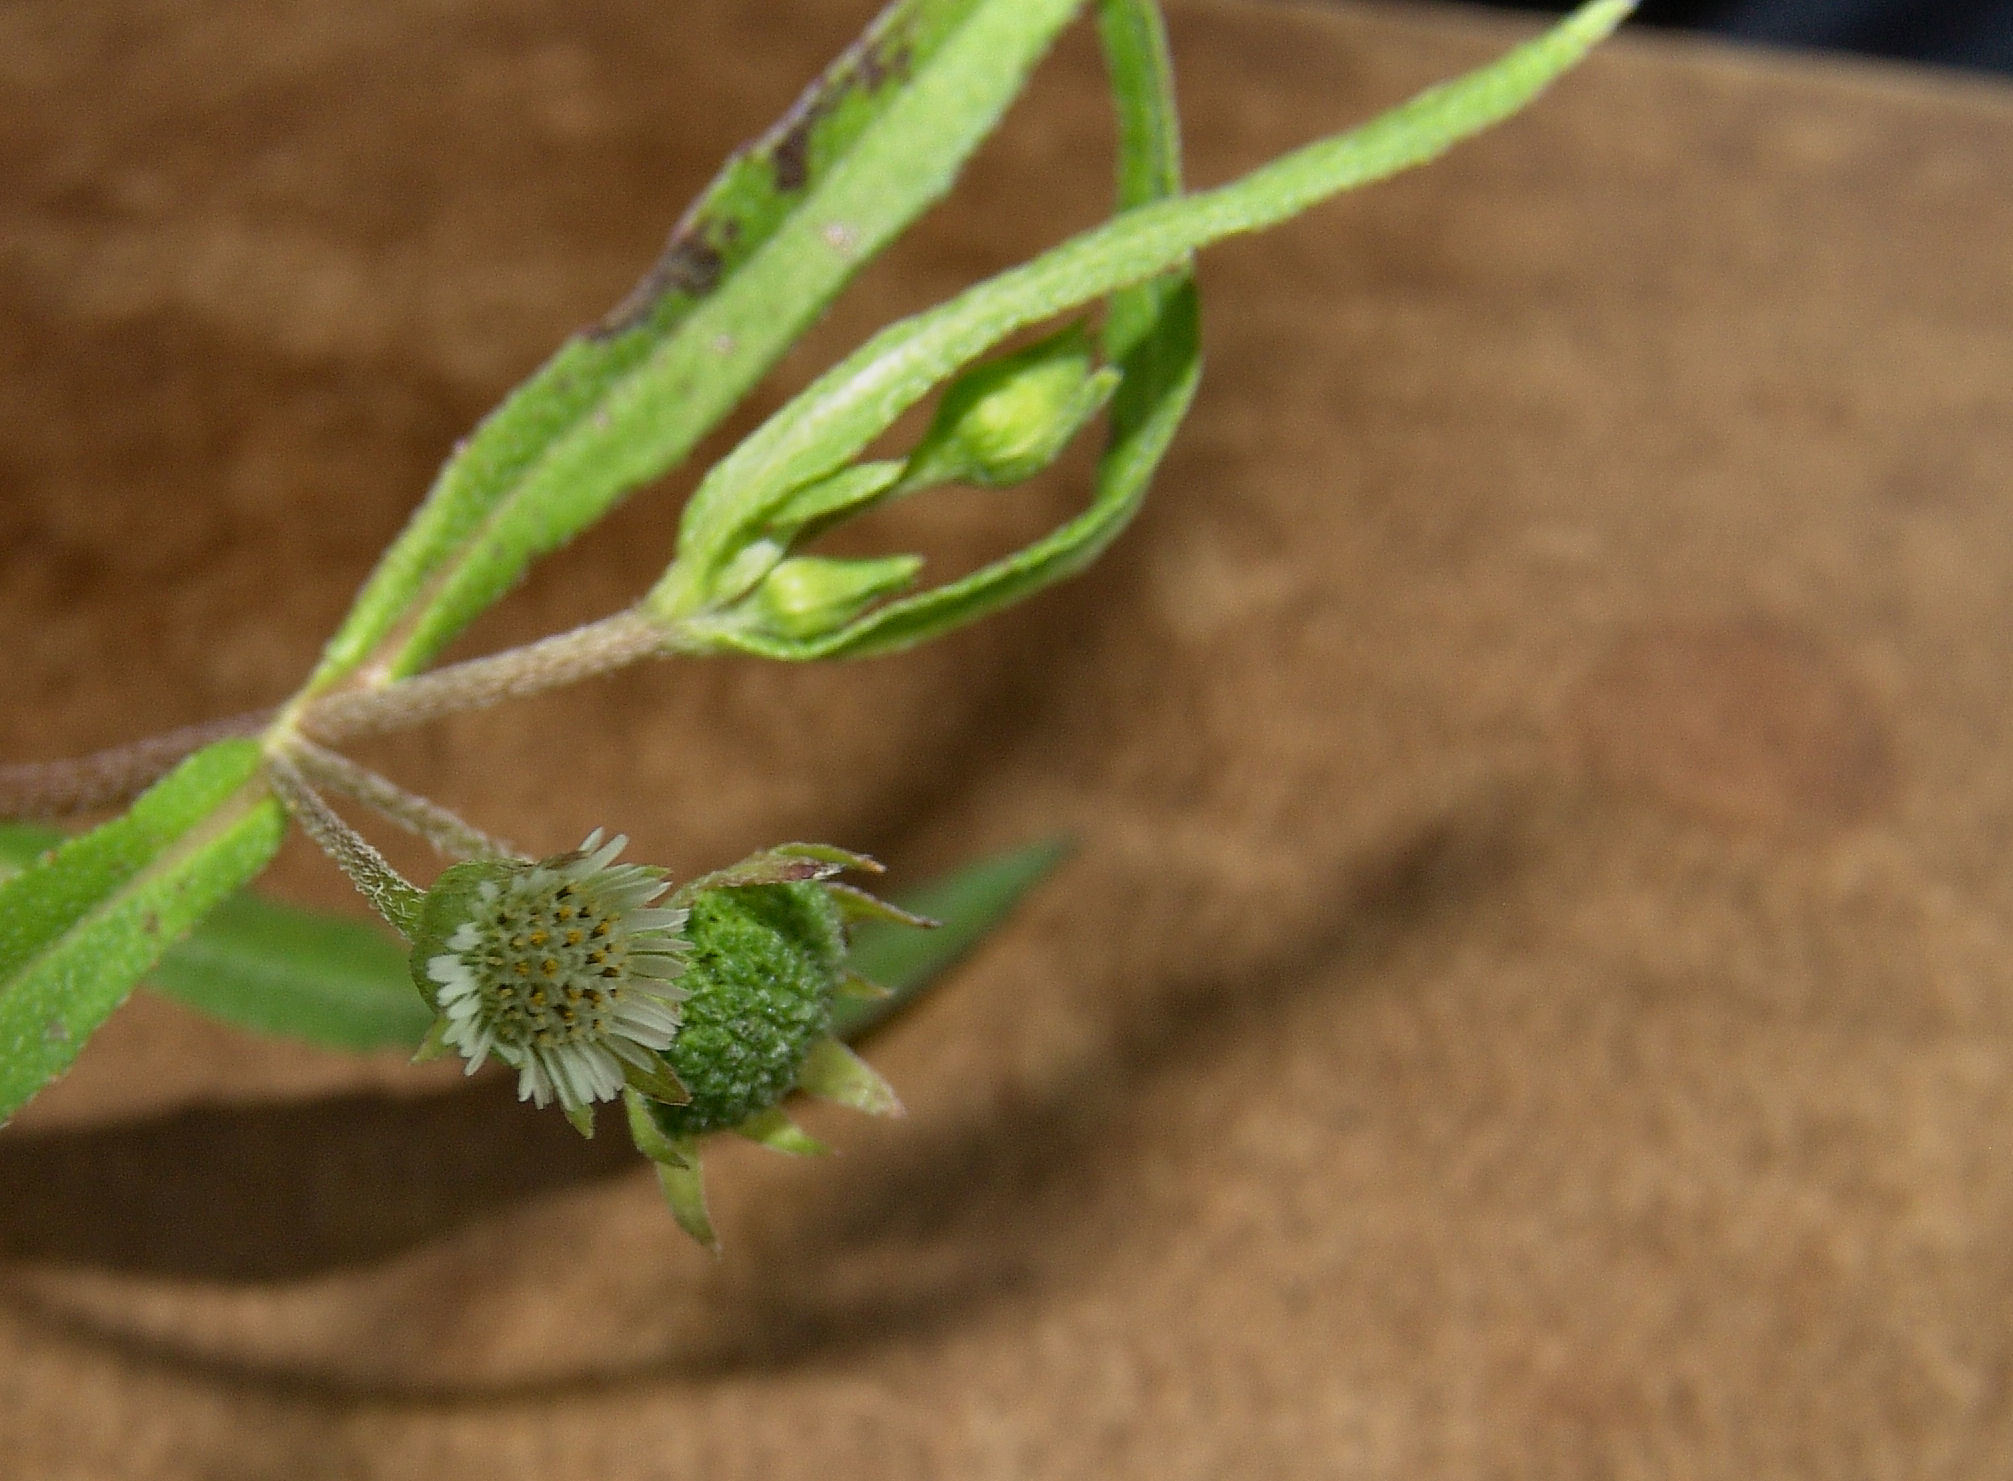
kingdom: Plantae
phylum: Tracheophyta
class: Magnoliopsida
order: Asterales
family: Asteraceae
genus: Eclipta
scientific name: Eclipta prostrata
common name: False daisy
